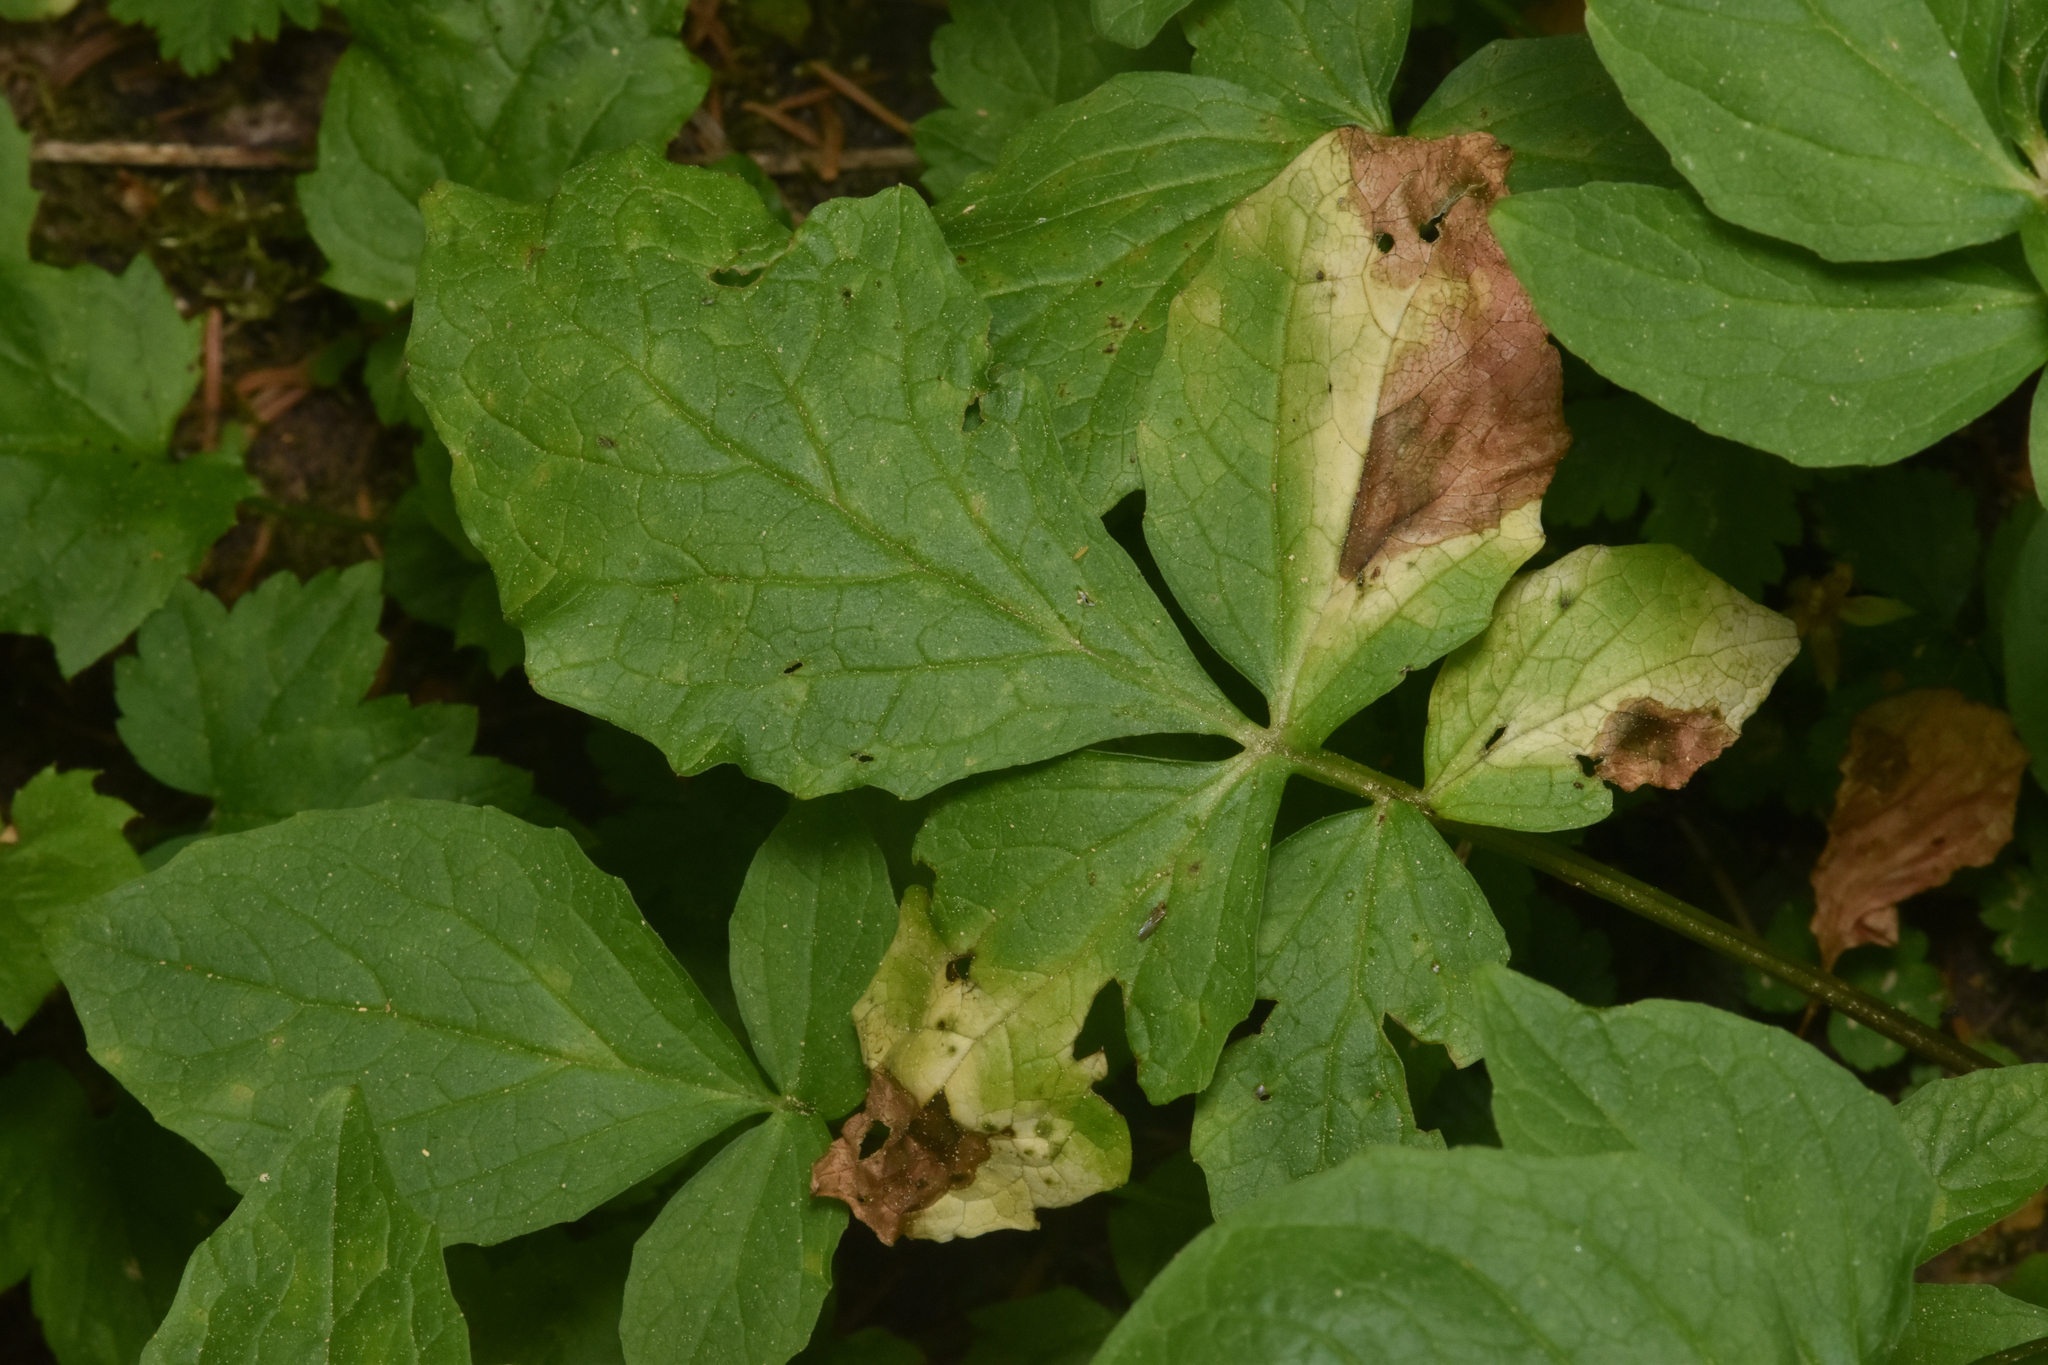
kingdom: Plantae
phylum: Tracheophyta
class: Magnoliopsida
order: Dipsacales
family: Caprifoliaceae
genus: Valeriana
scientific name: Valeriana sitchensis
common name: Pacific valerian
